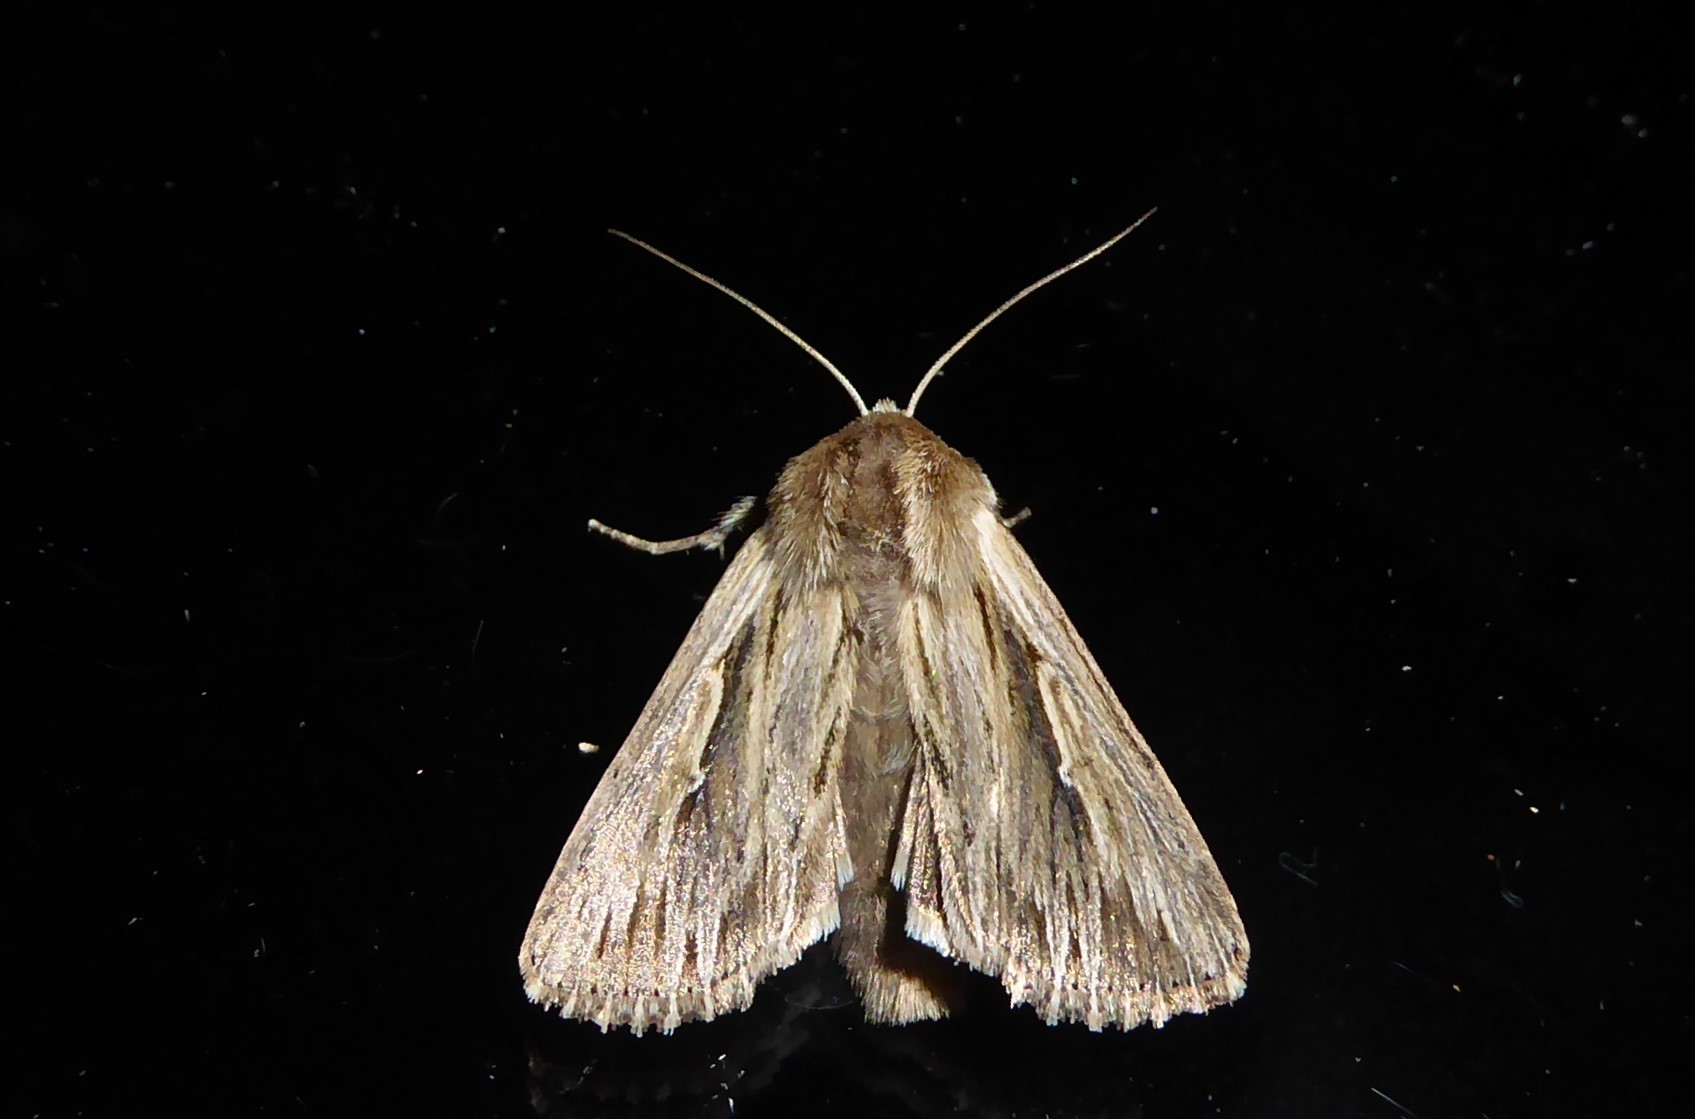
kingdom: Animalia
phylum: Arthropoda
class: Insecta
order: Lepidoptera
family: Noctuidae
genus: Persectania
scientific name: Persectania aversa
